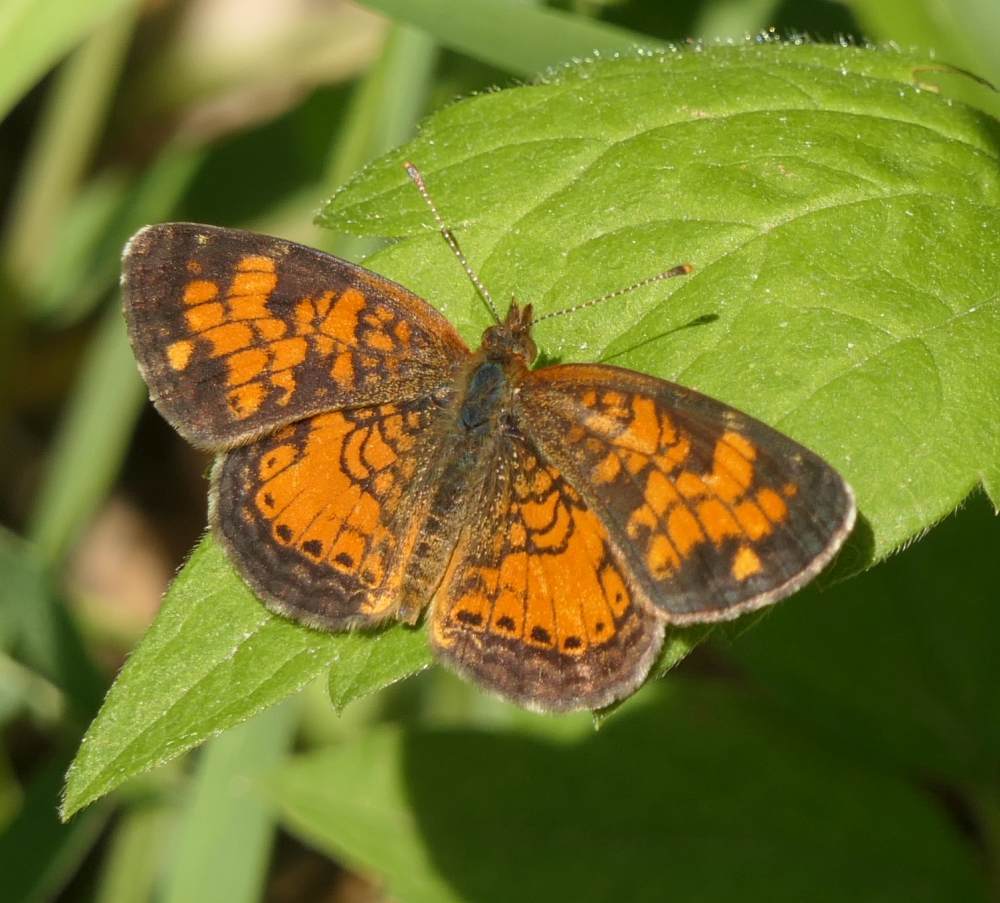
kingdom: Animalia
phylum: Arthropoda
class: Insecta
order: Lepidoptera
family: Nymphalidae
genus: Phyciodes
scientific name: Phyciodes tharos
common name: Pearl crescent
